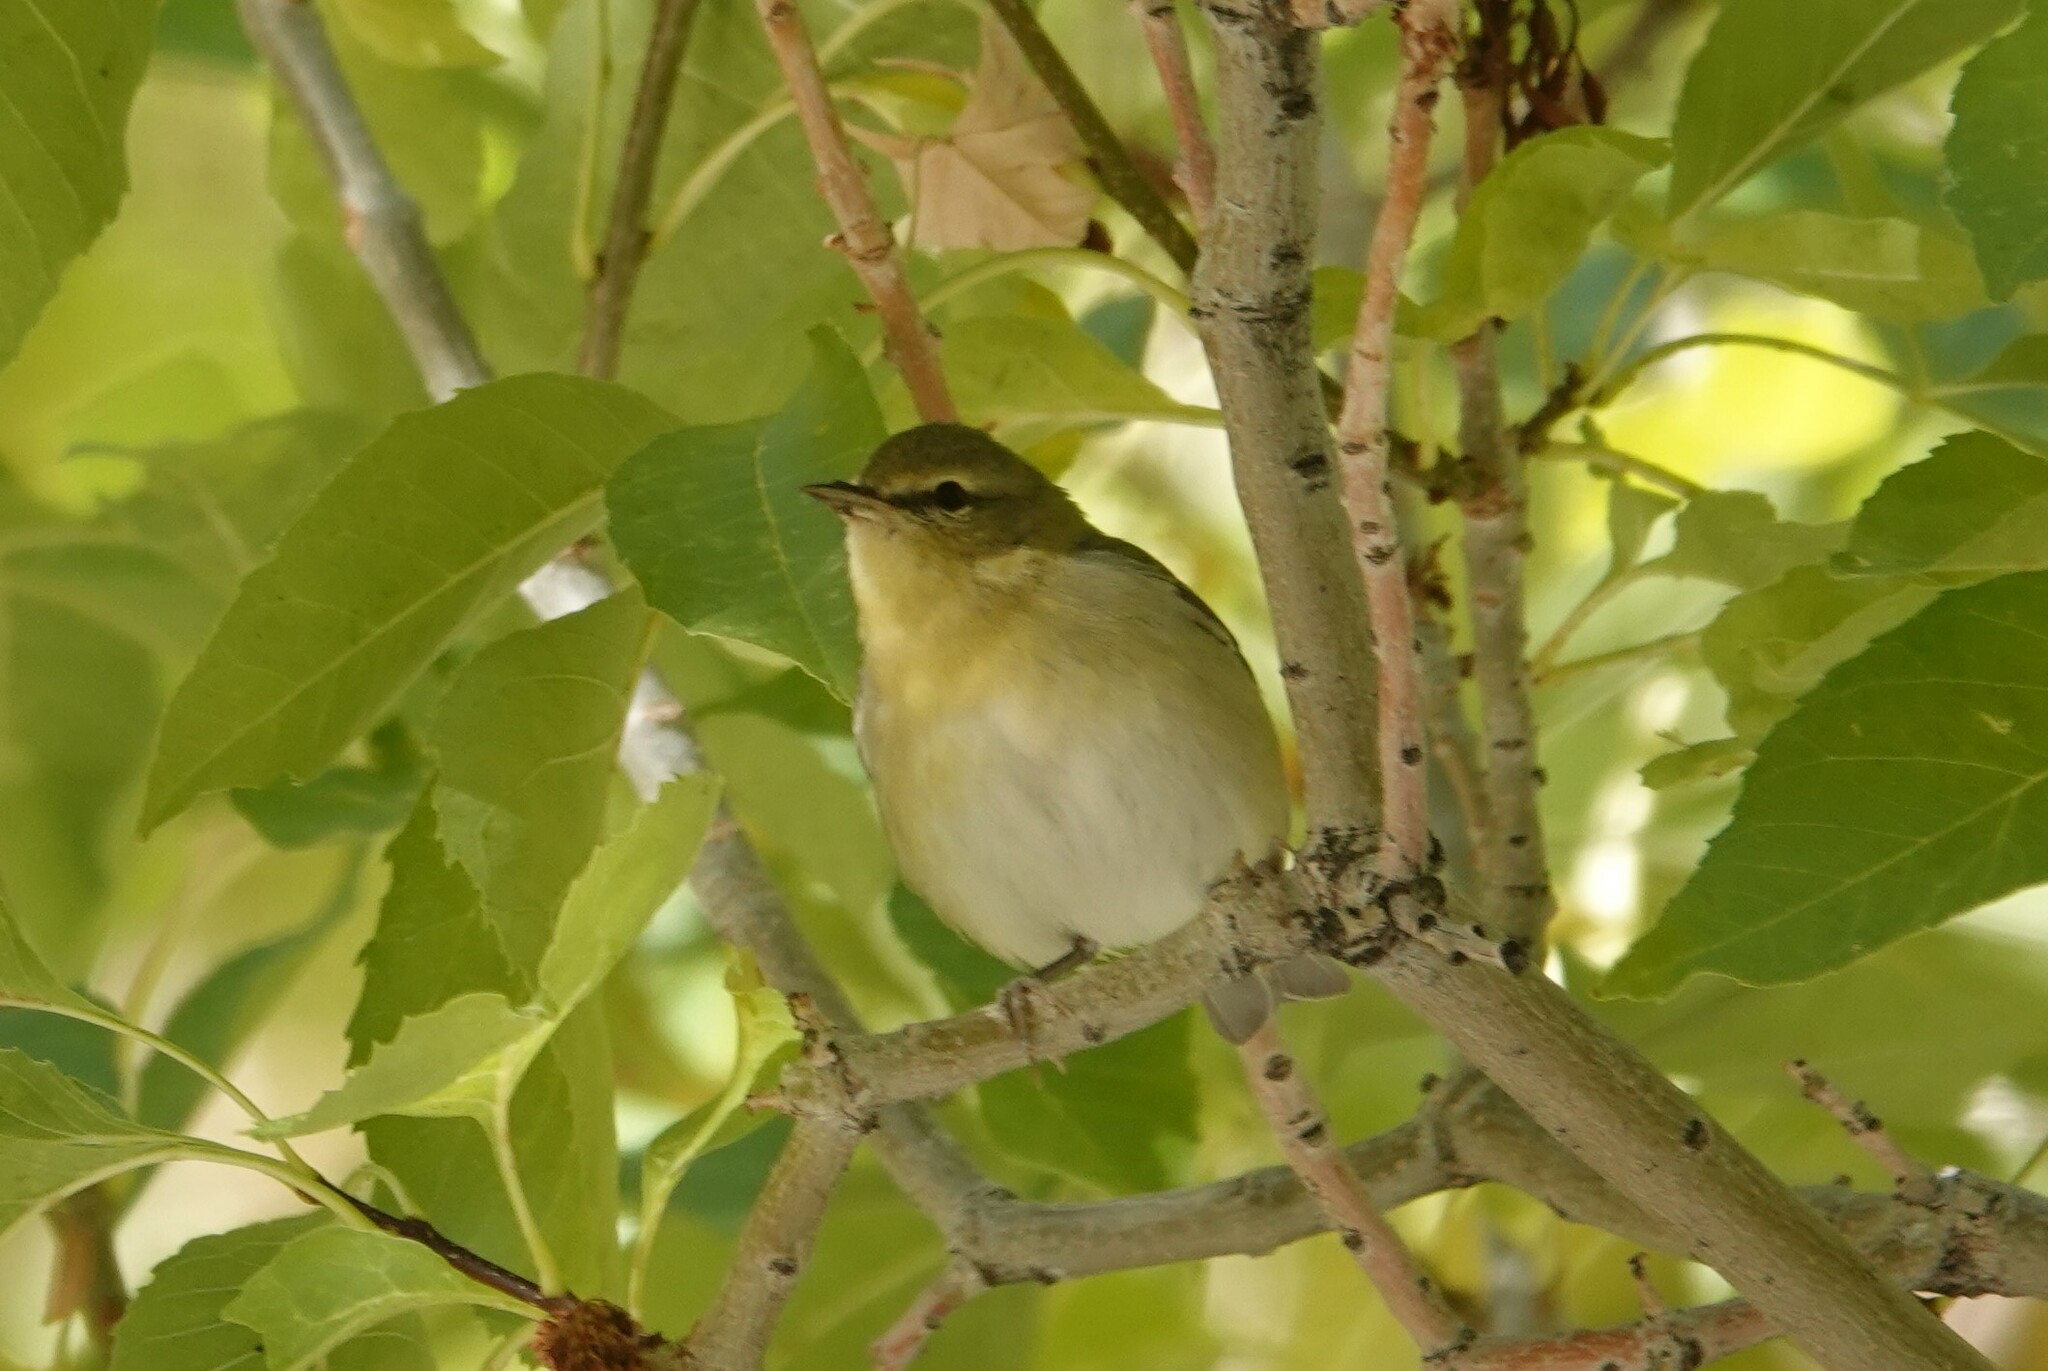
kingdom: Animalia
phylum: Chordata
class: Aves
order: Passeriformes
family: Parulidae
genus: Leiothlypis
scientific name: Leiothlypis peregrina
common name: Tennessee warbler
